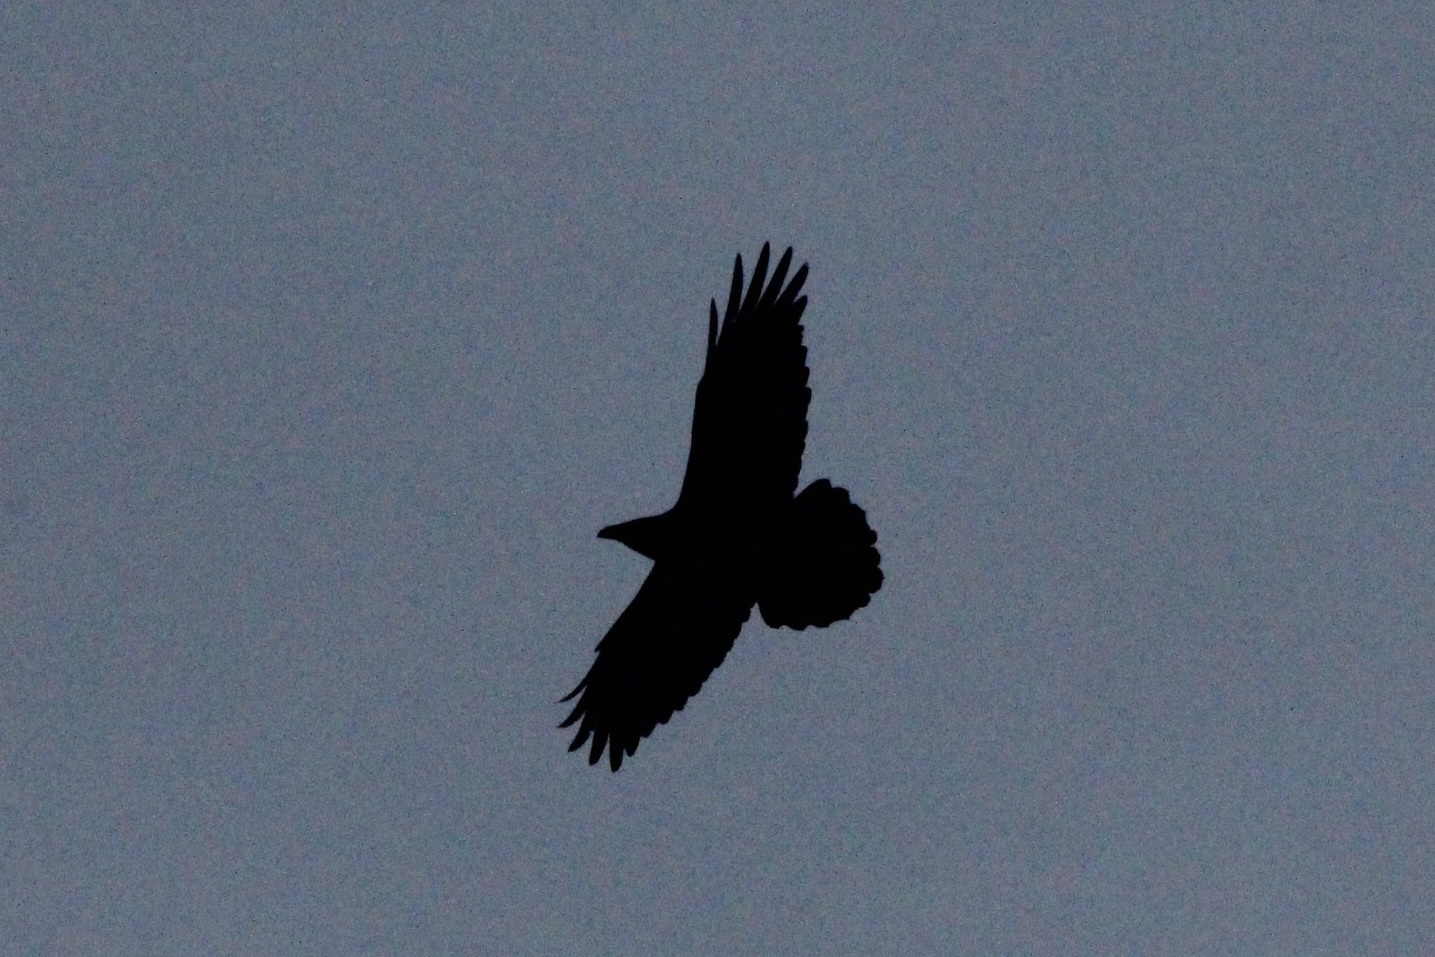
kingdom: Animalia
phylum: Chordata
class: Aves
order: Passeriformes
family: Corvidae
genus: Corvus
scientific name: Corvus corax
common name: Common raven
